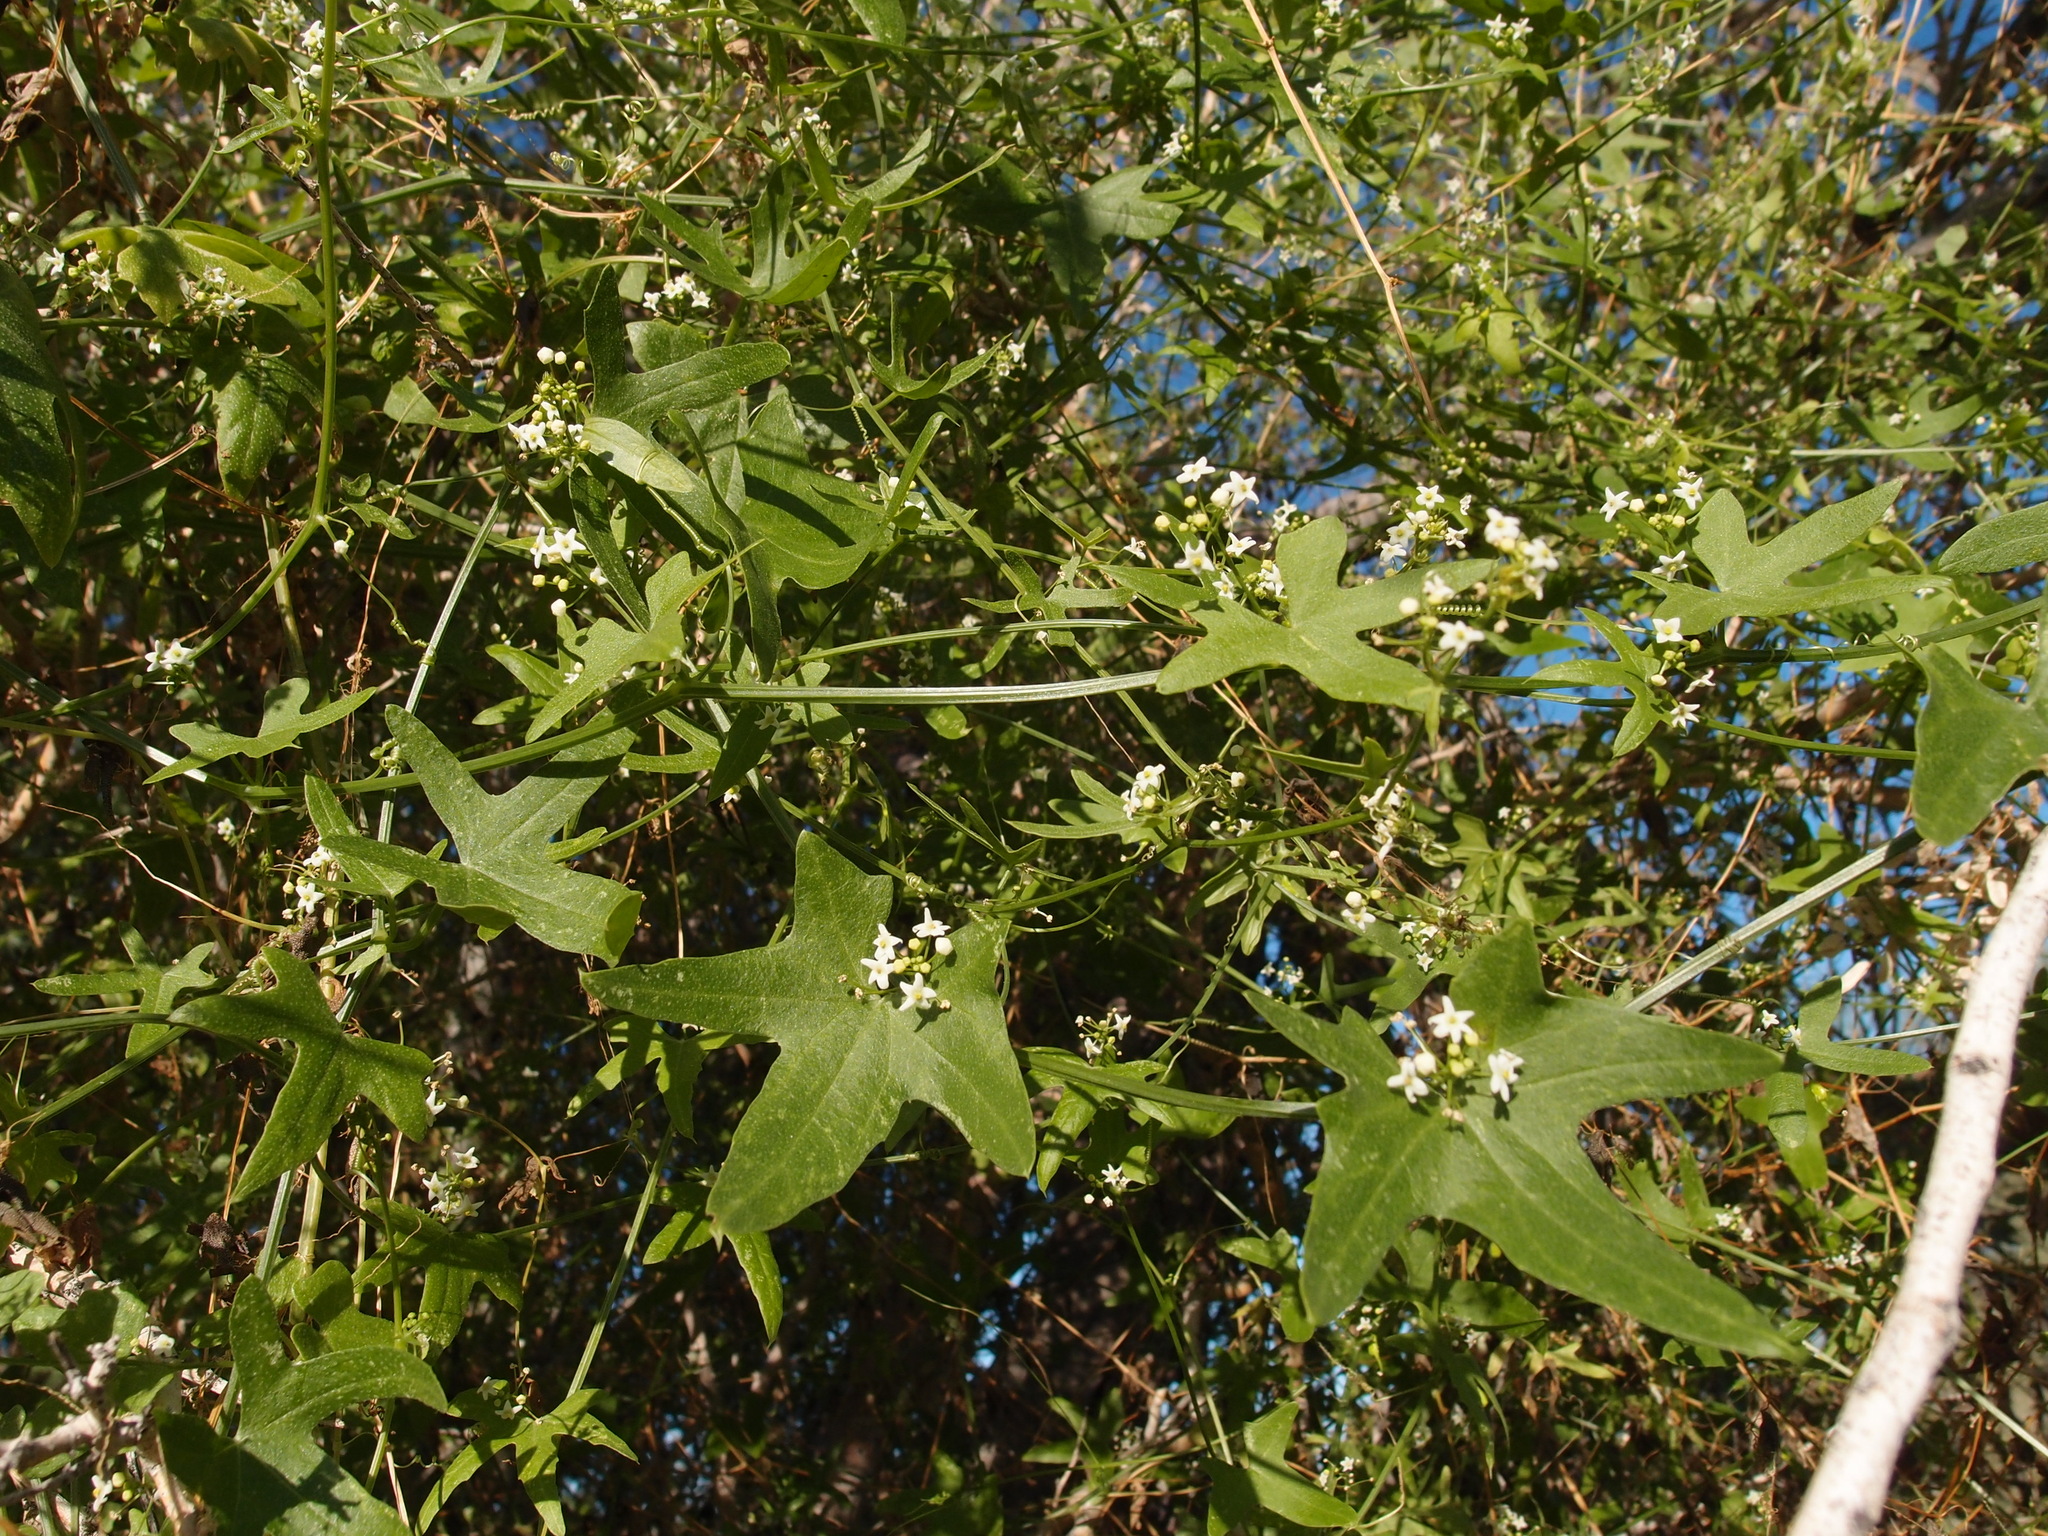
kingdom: Plantae
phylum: Tracheophyta
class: Magnoliopsida
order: Cucurbitales
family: Cucurbitaceae
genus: Echinopepon
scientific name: Echinopepon bigelovii
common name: Desert starvine
